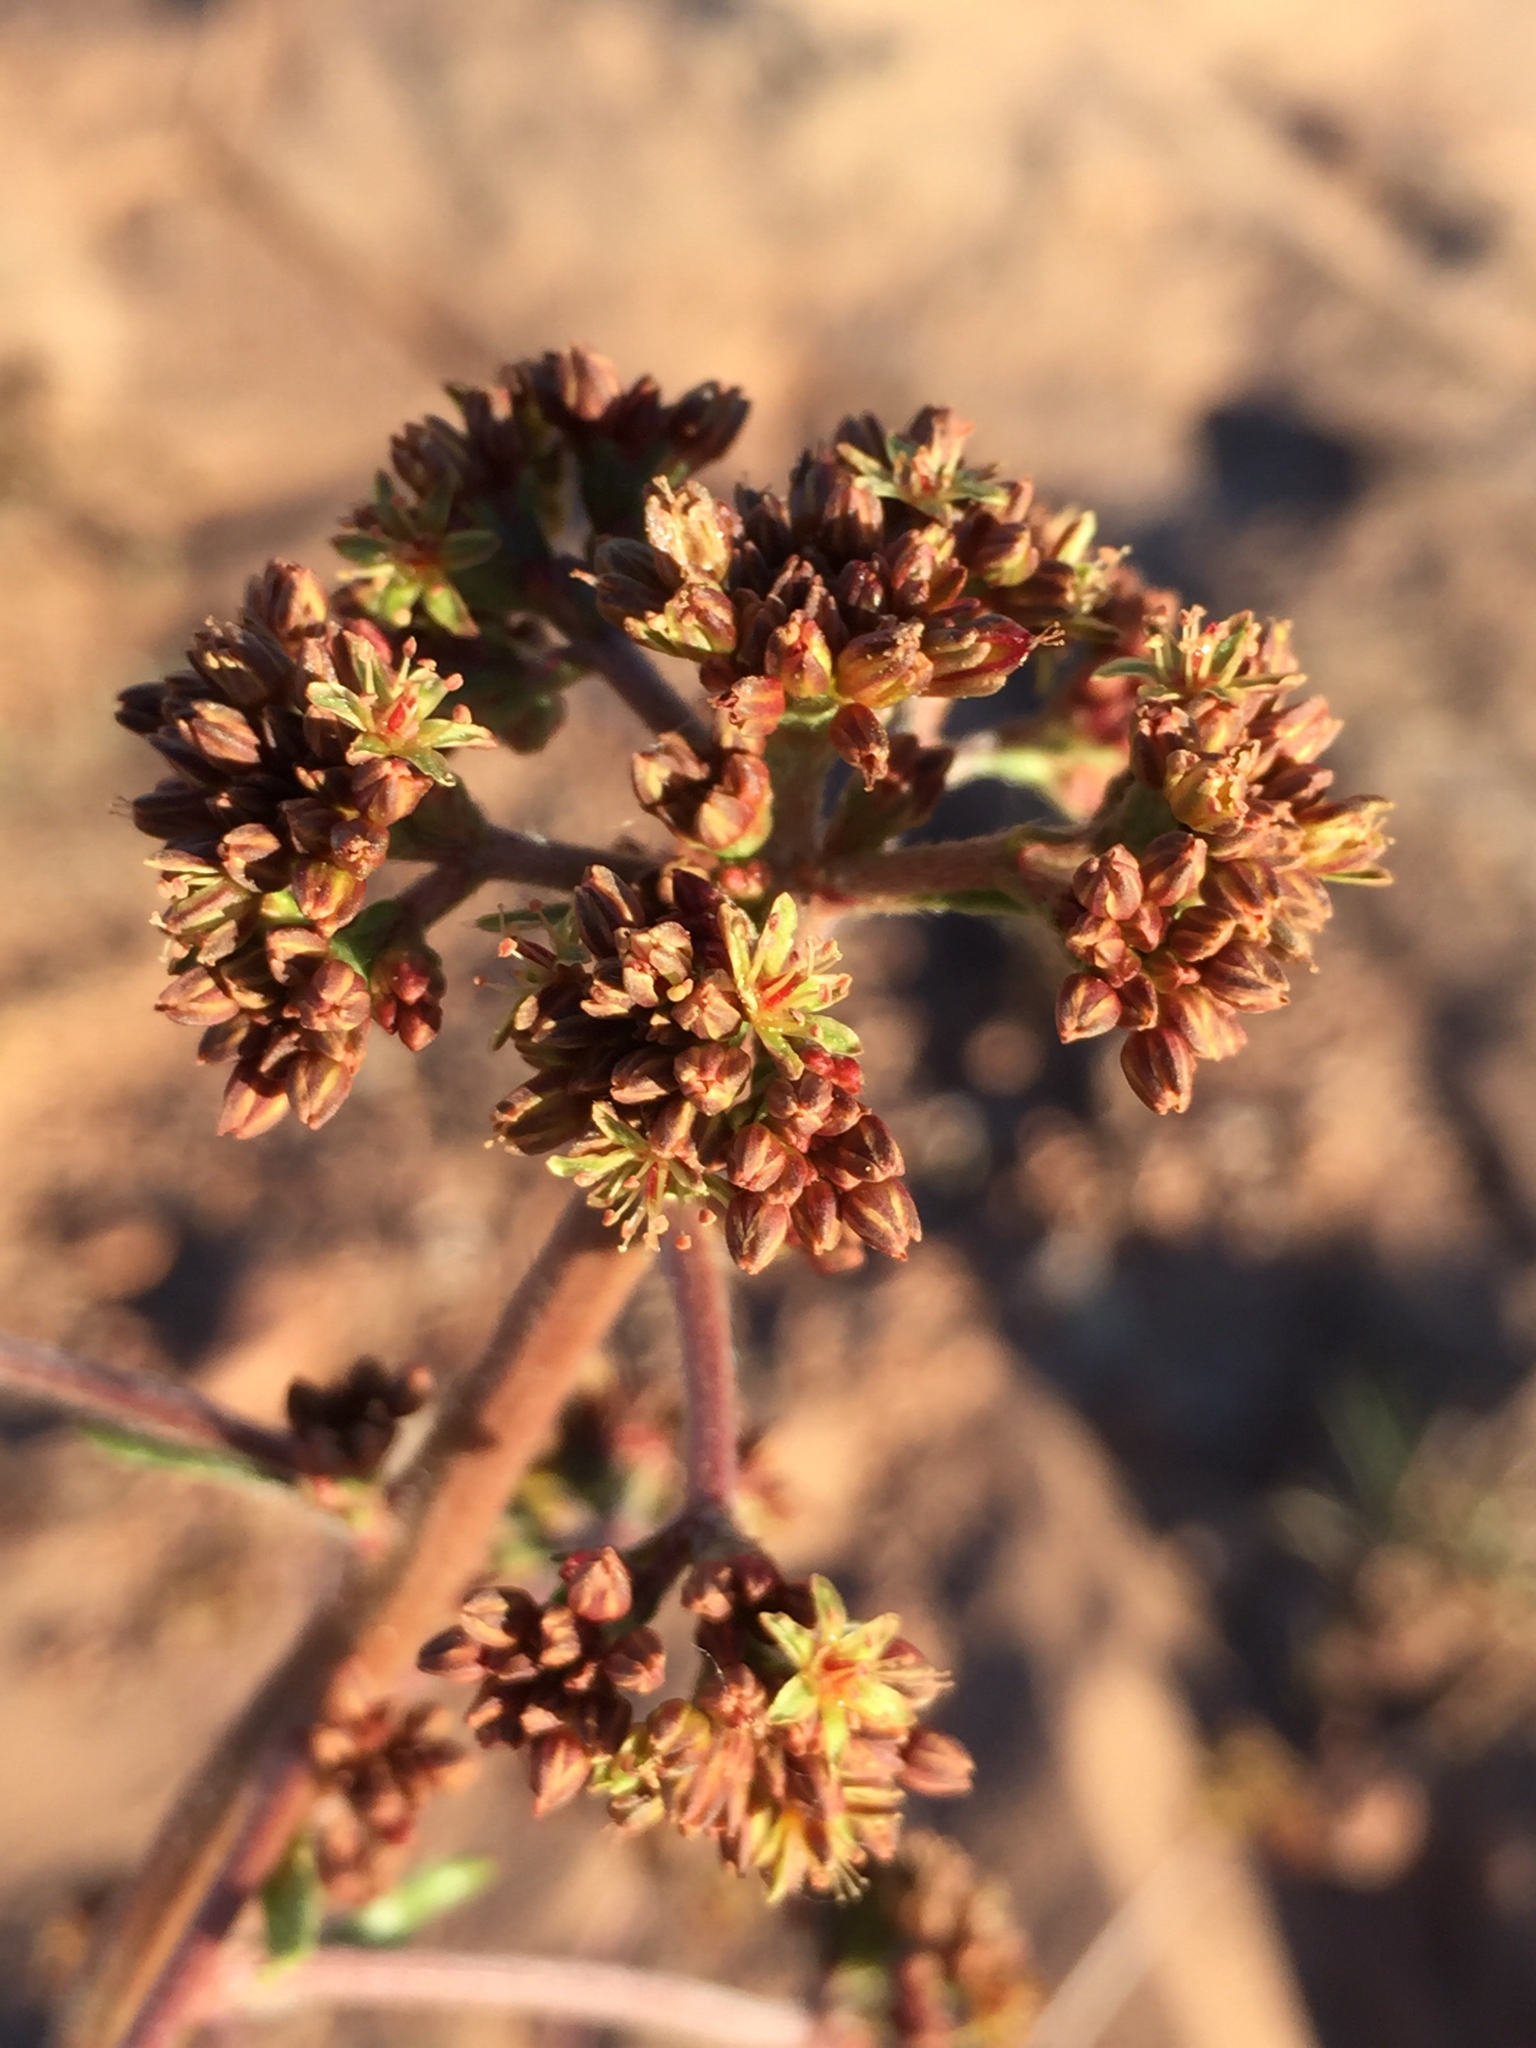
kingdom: Plantae
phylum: Tracheophyta
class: Magnoliopsida
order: Caryophyllales
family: Polygonaceae
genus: Eriogonum
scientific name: Eriogonum alatum
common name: Winged eriogonum
